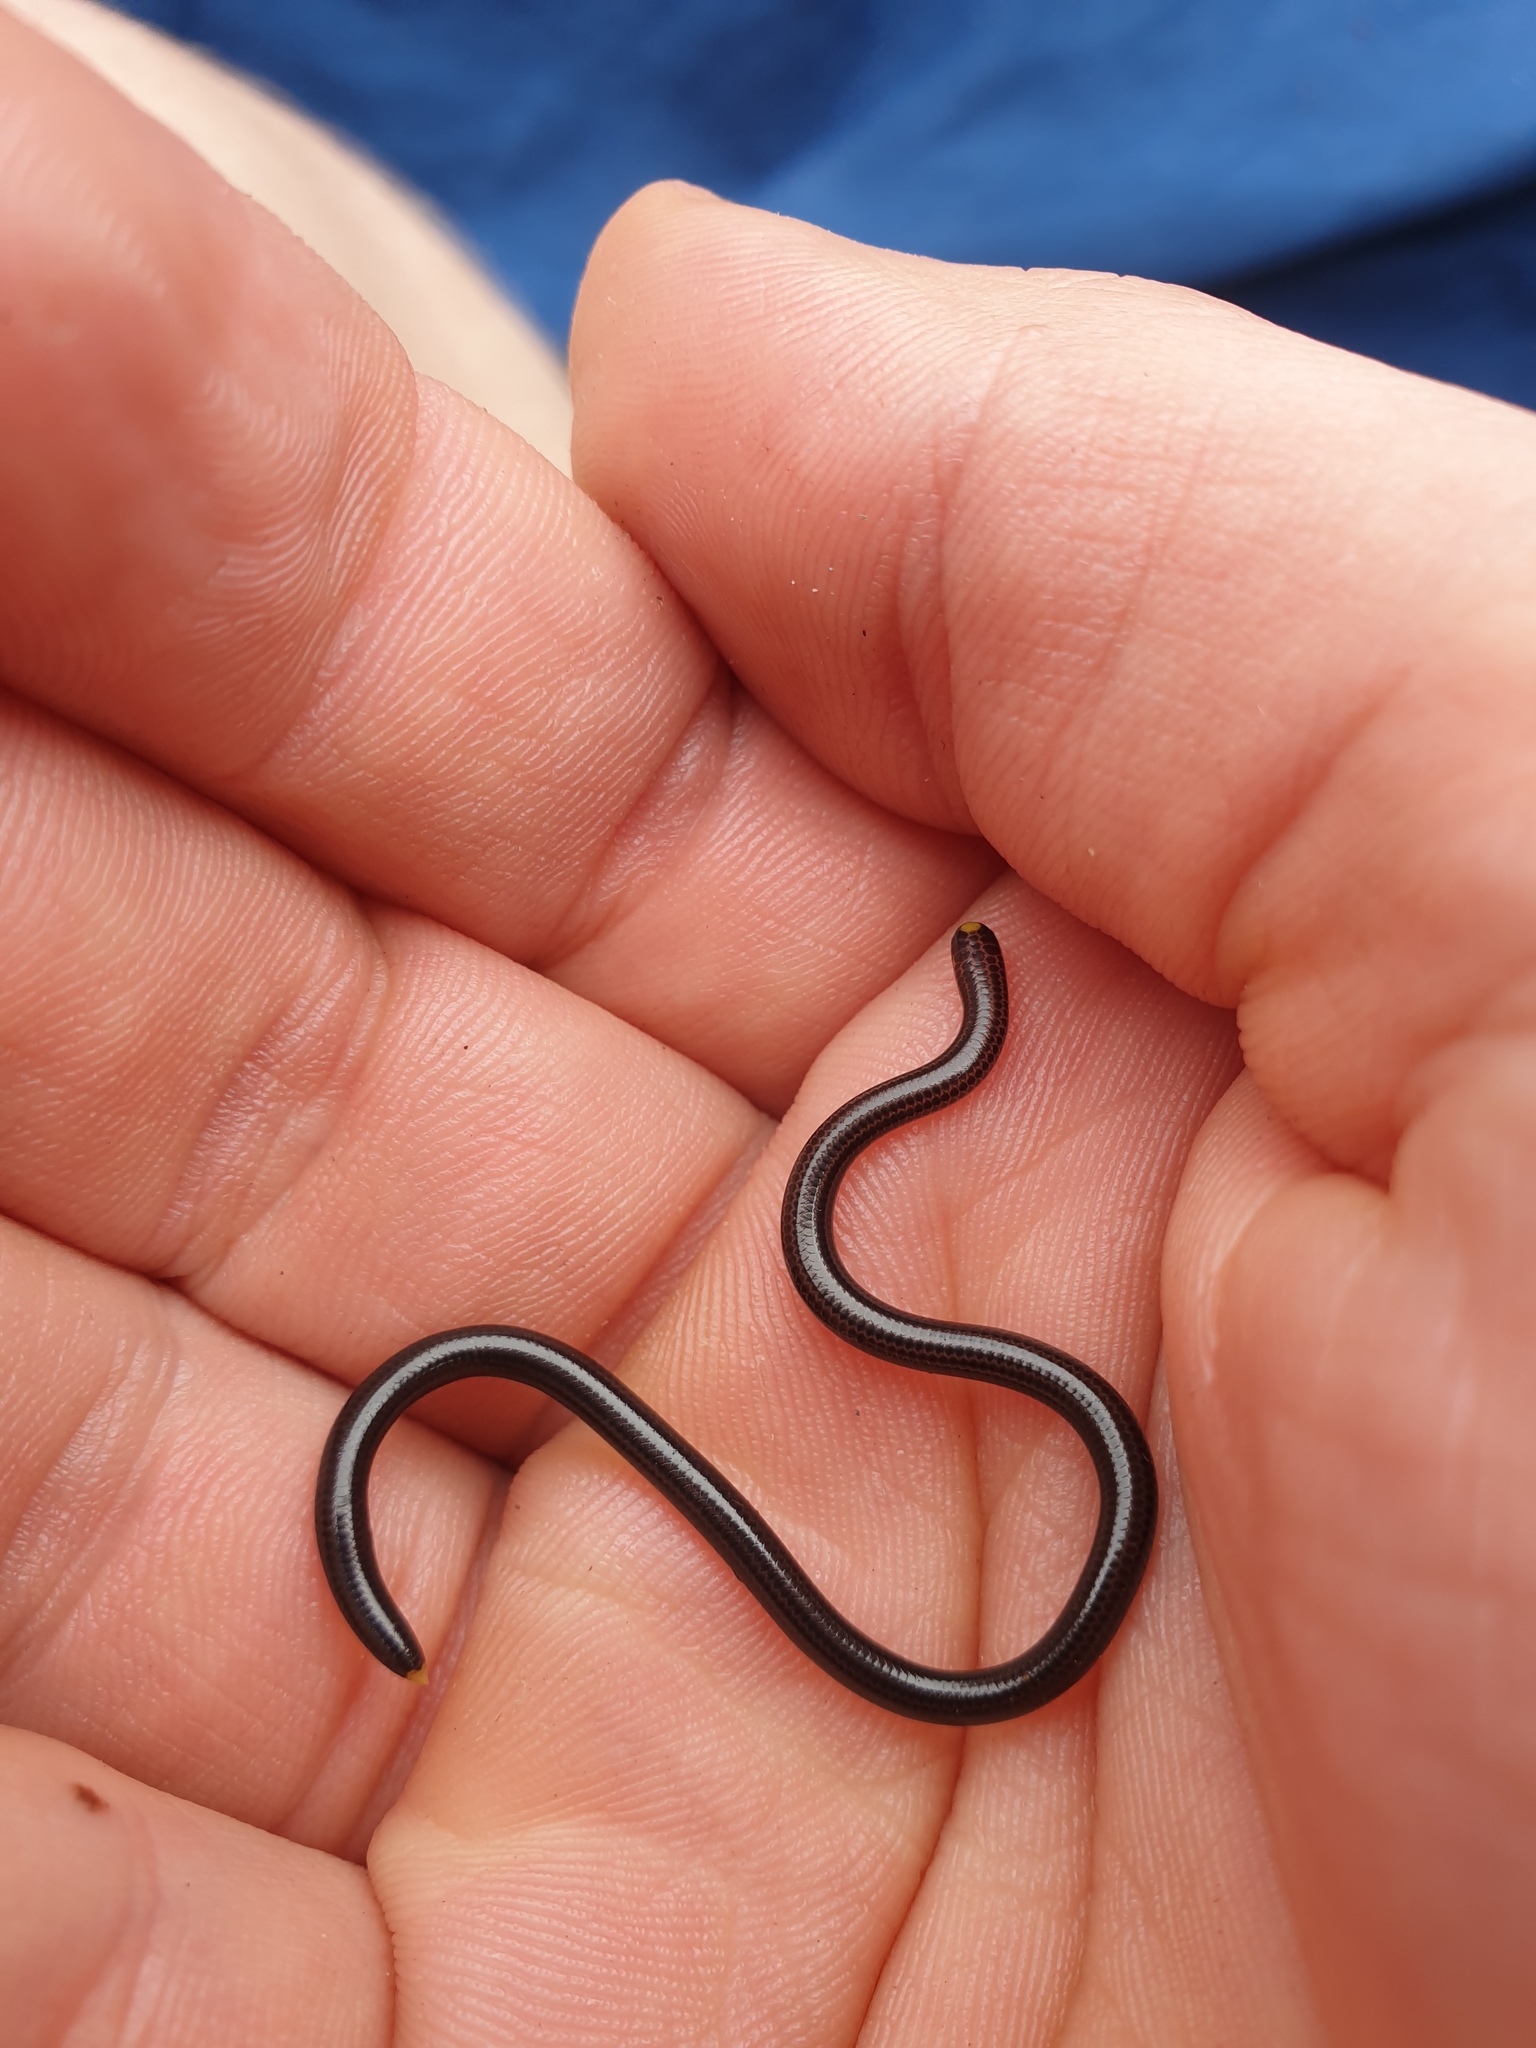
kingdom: Animalia
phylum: Chordata
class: Squamata
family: Leptotyphlopidae
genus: Epictia
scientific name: Epictia tenella
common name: Guyana blind snake
